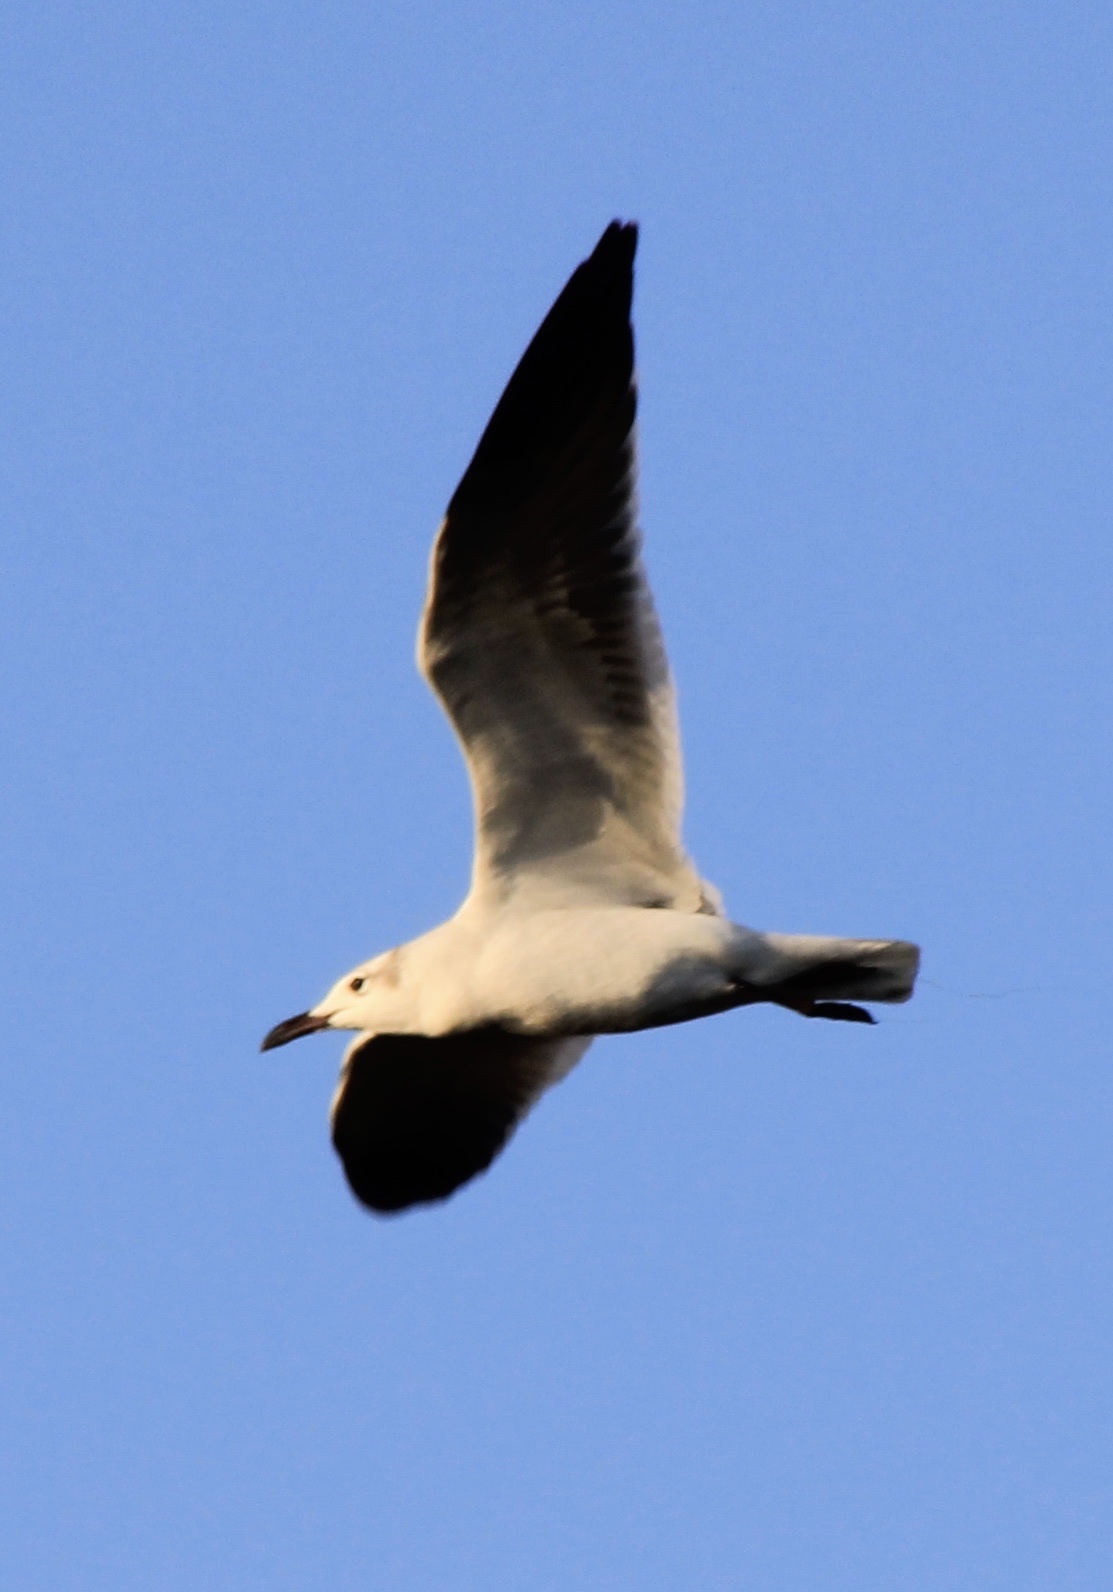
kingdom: Animalia
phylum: Chordata
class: Aves
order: Charadriiformes
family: Laridae
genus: Leucophaeus
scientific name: Leucophaeus atricilla
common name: Laughing gull
